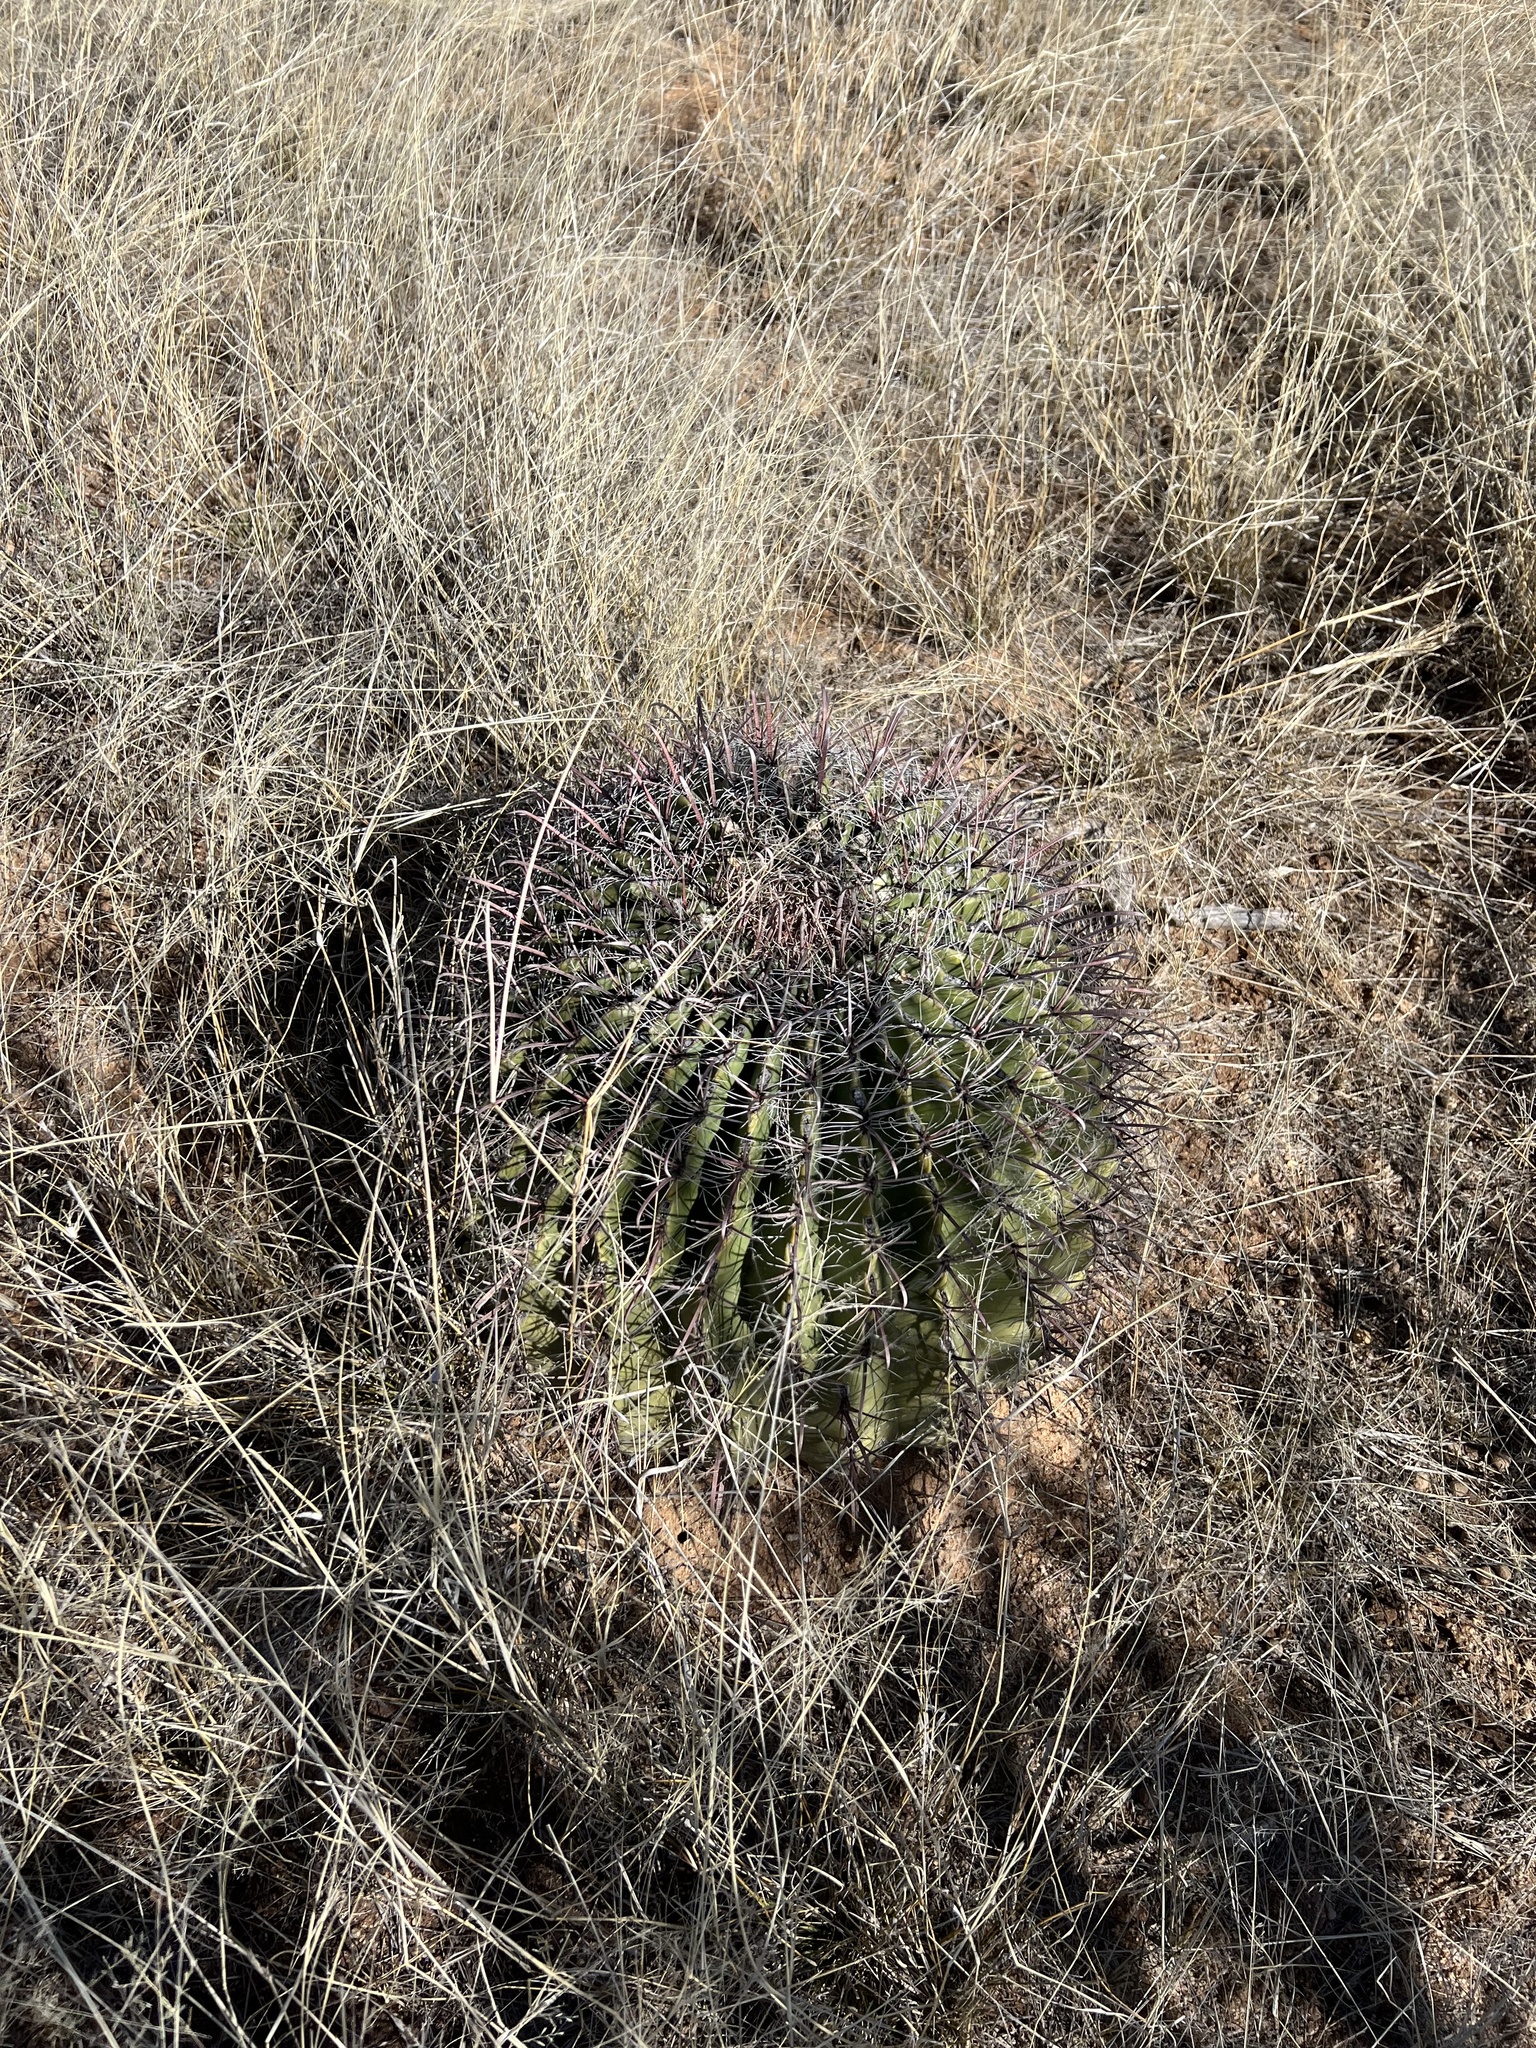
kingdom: Plantae
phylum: Tracheophyta
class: Magnoliopsida
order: Caryophyllales
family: Cactaceae
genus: Ferocactus
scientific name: Ferocactus wislizeni
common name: Candy barrel cactus
